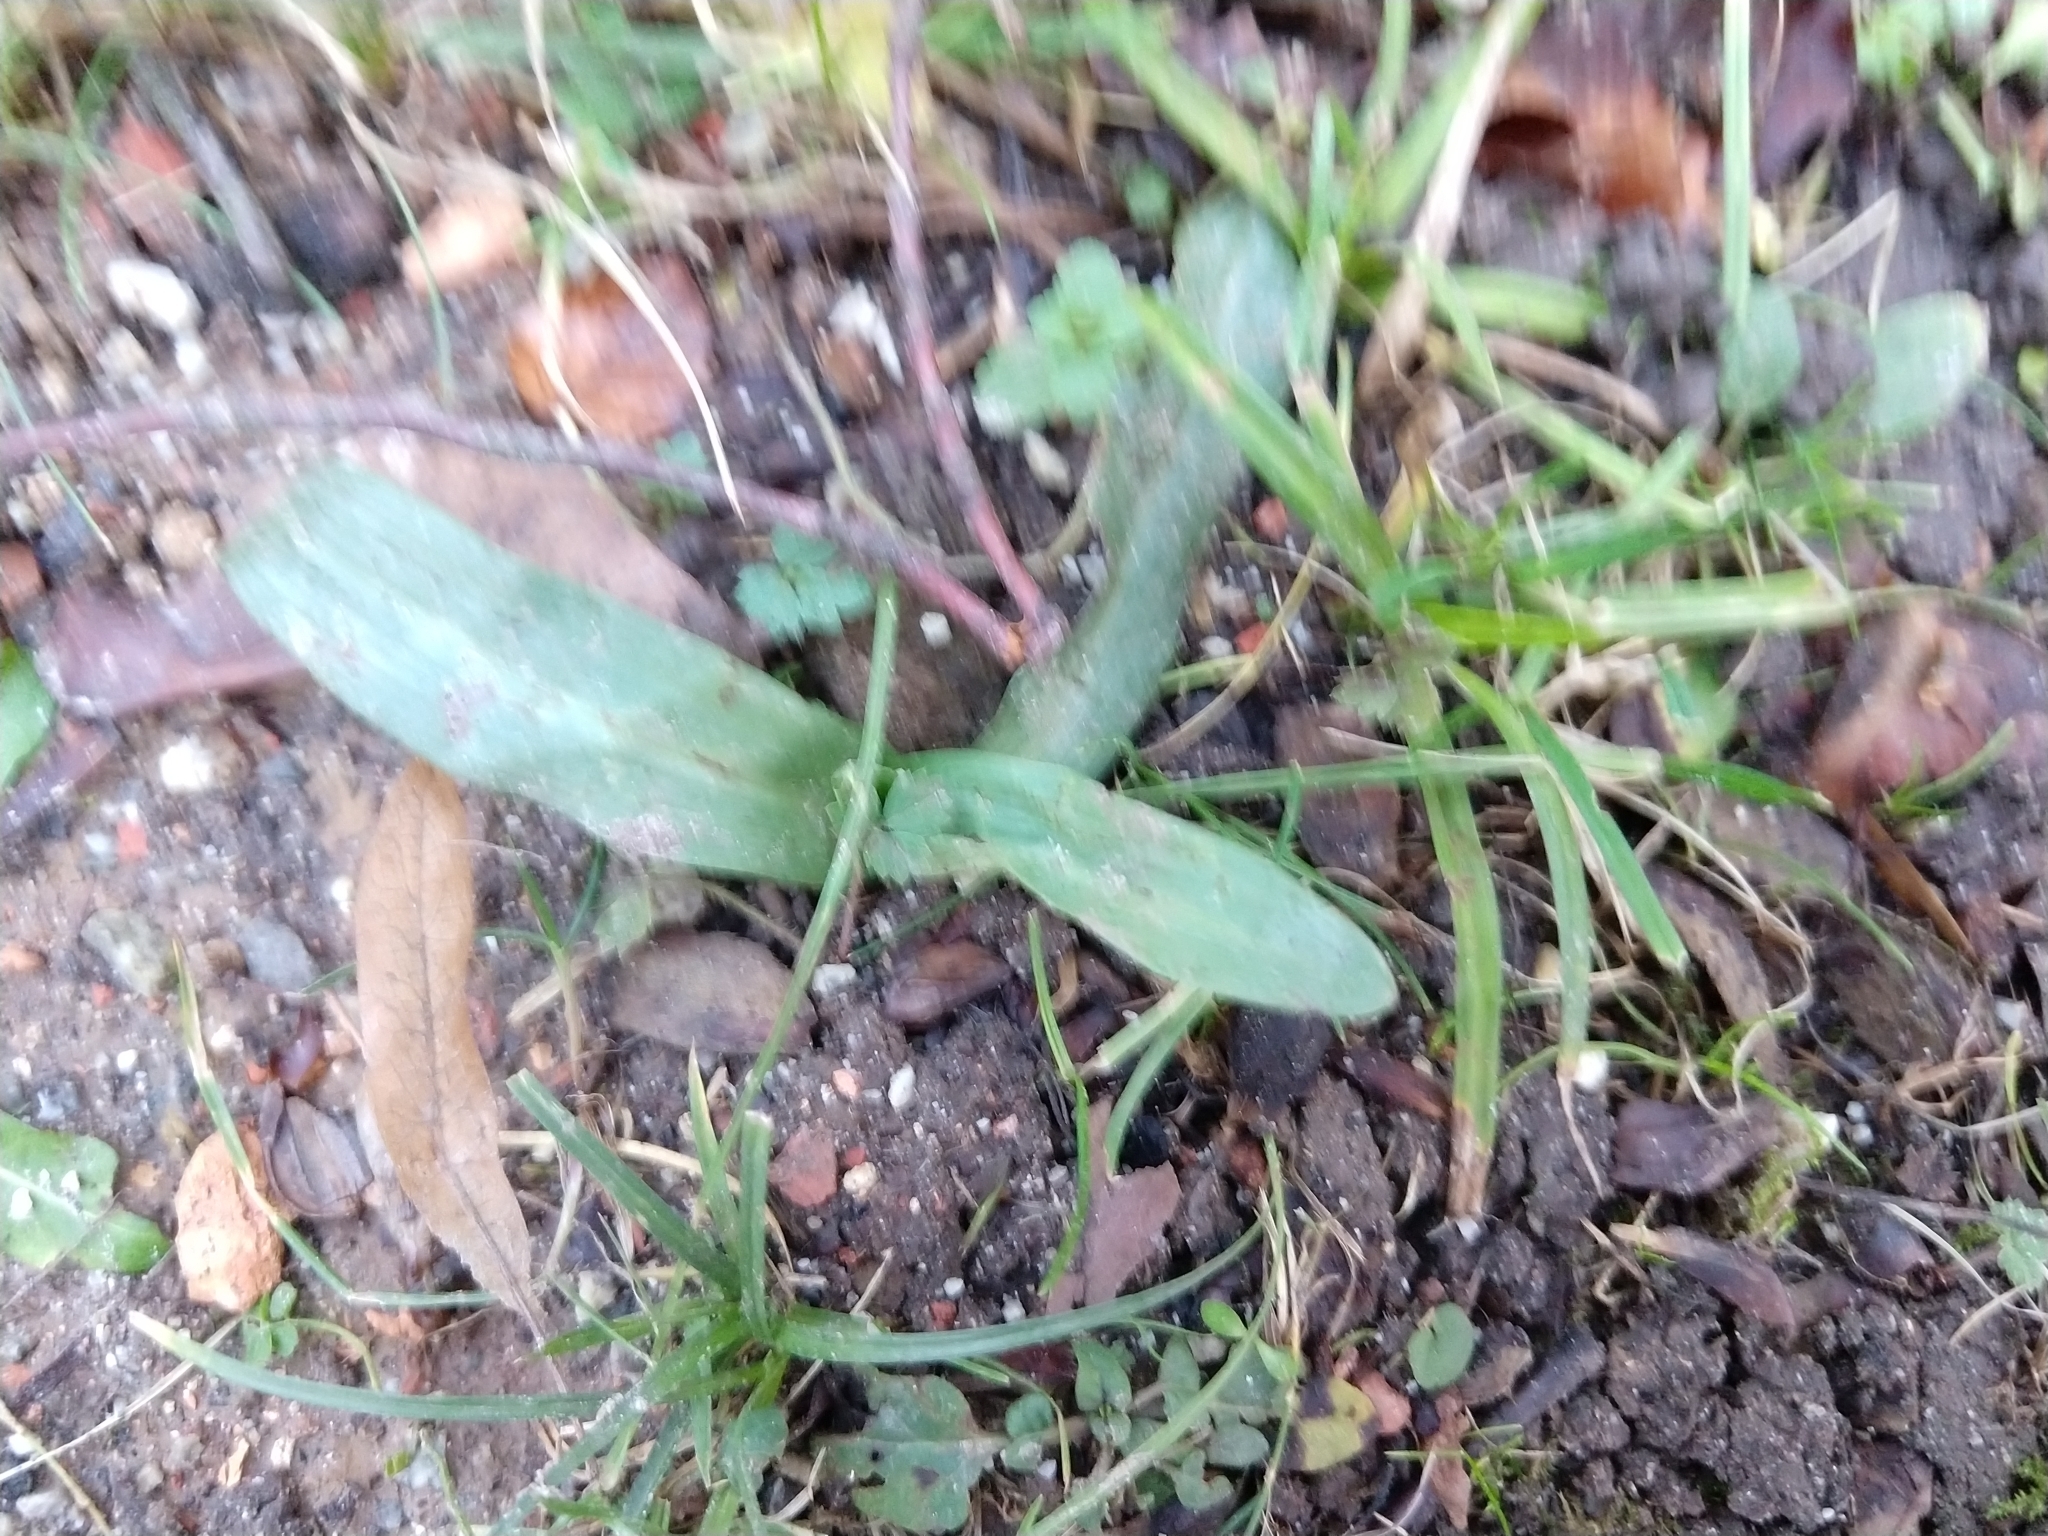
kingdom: Plantae
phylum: Tracheophyta
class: Liliopsida
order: Asparagales
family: Orchidaceae
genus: Ophrys
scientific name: Ophrys apifera
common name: Bee orchid
